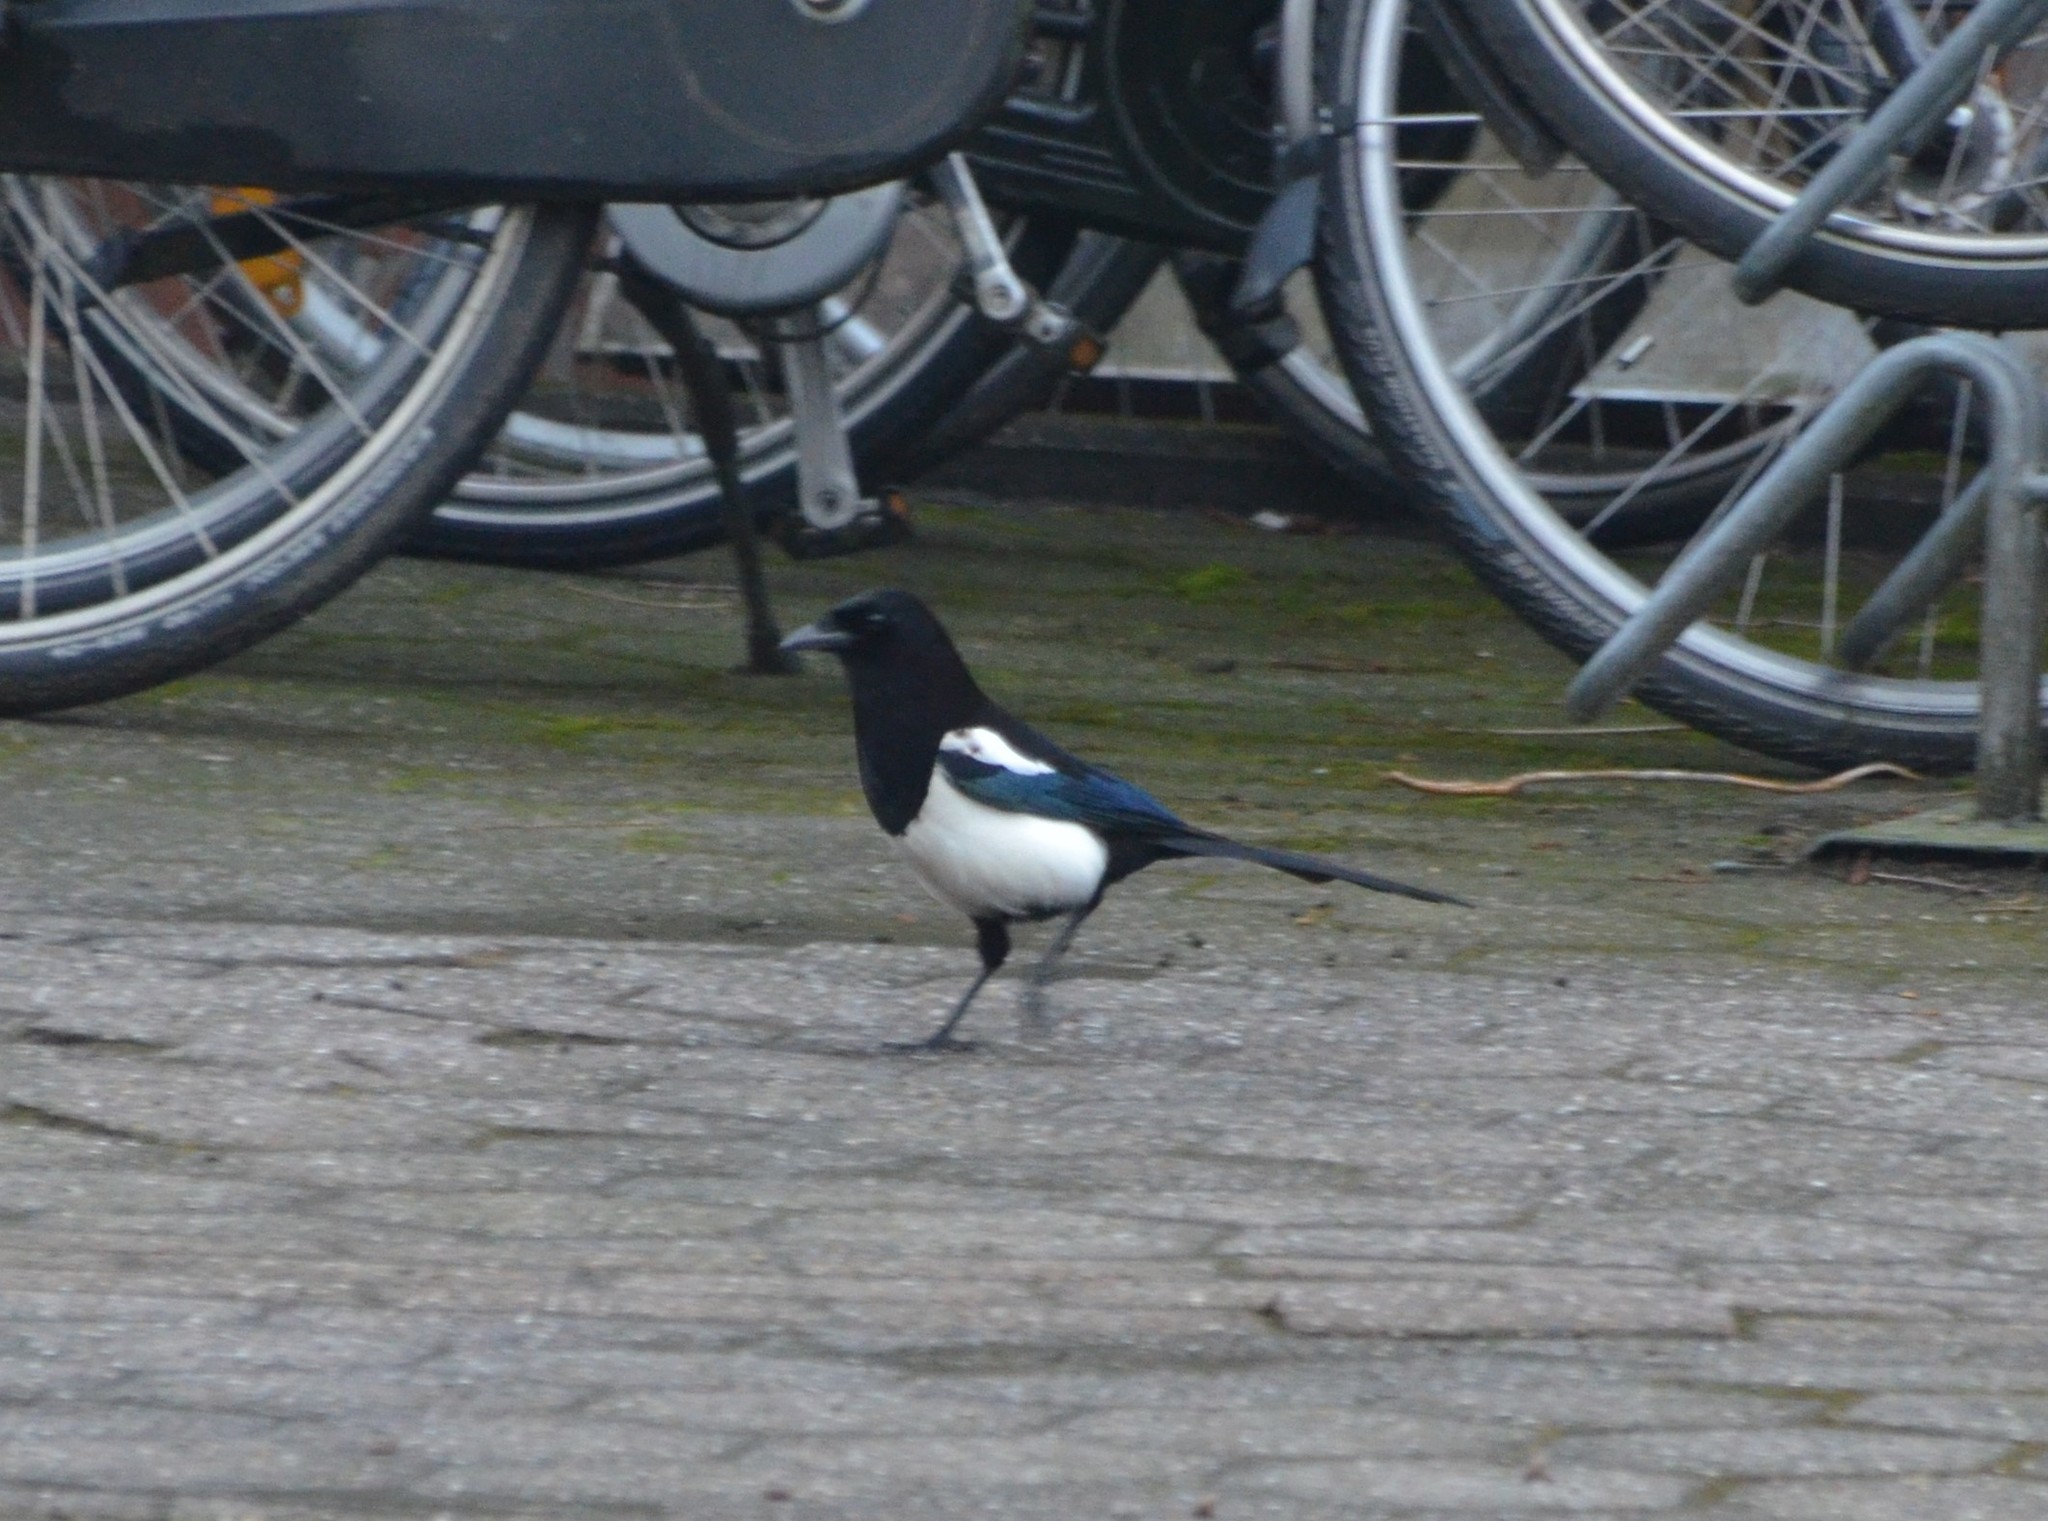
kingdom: Animalia
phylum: Chordata
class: Aves
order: Passeriformes
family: Corvidae
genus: Pica
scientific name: Pica pica
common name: Eurasian magpie
